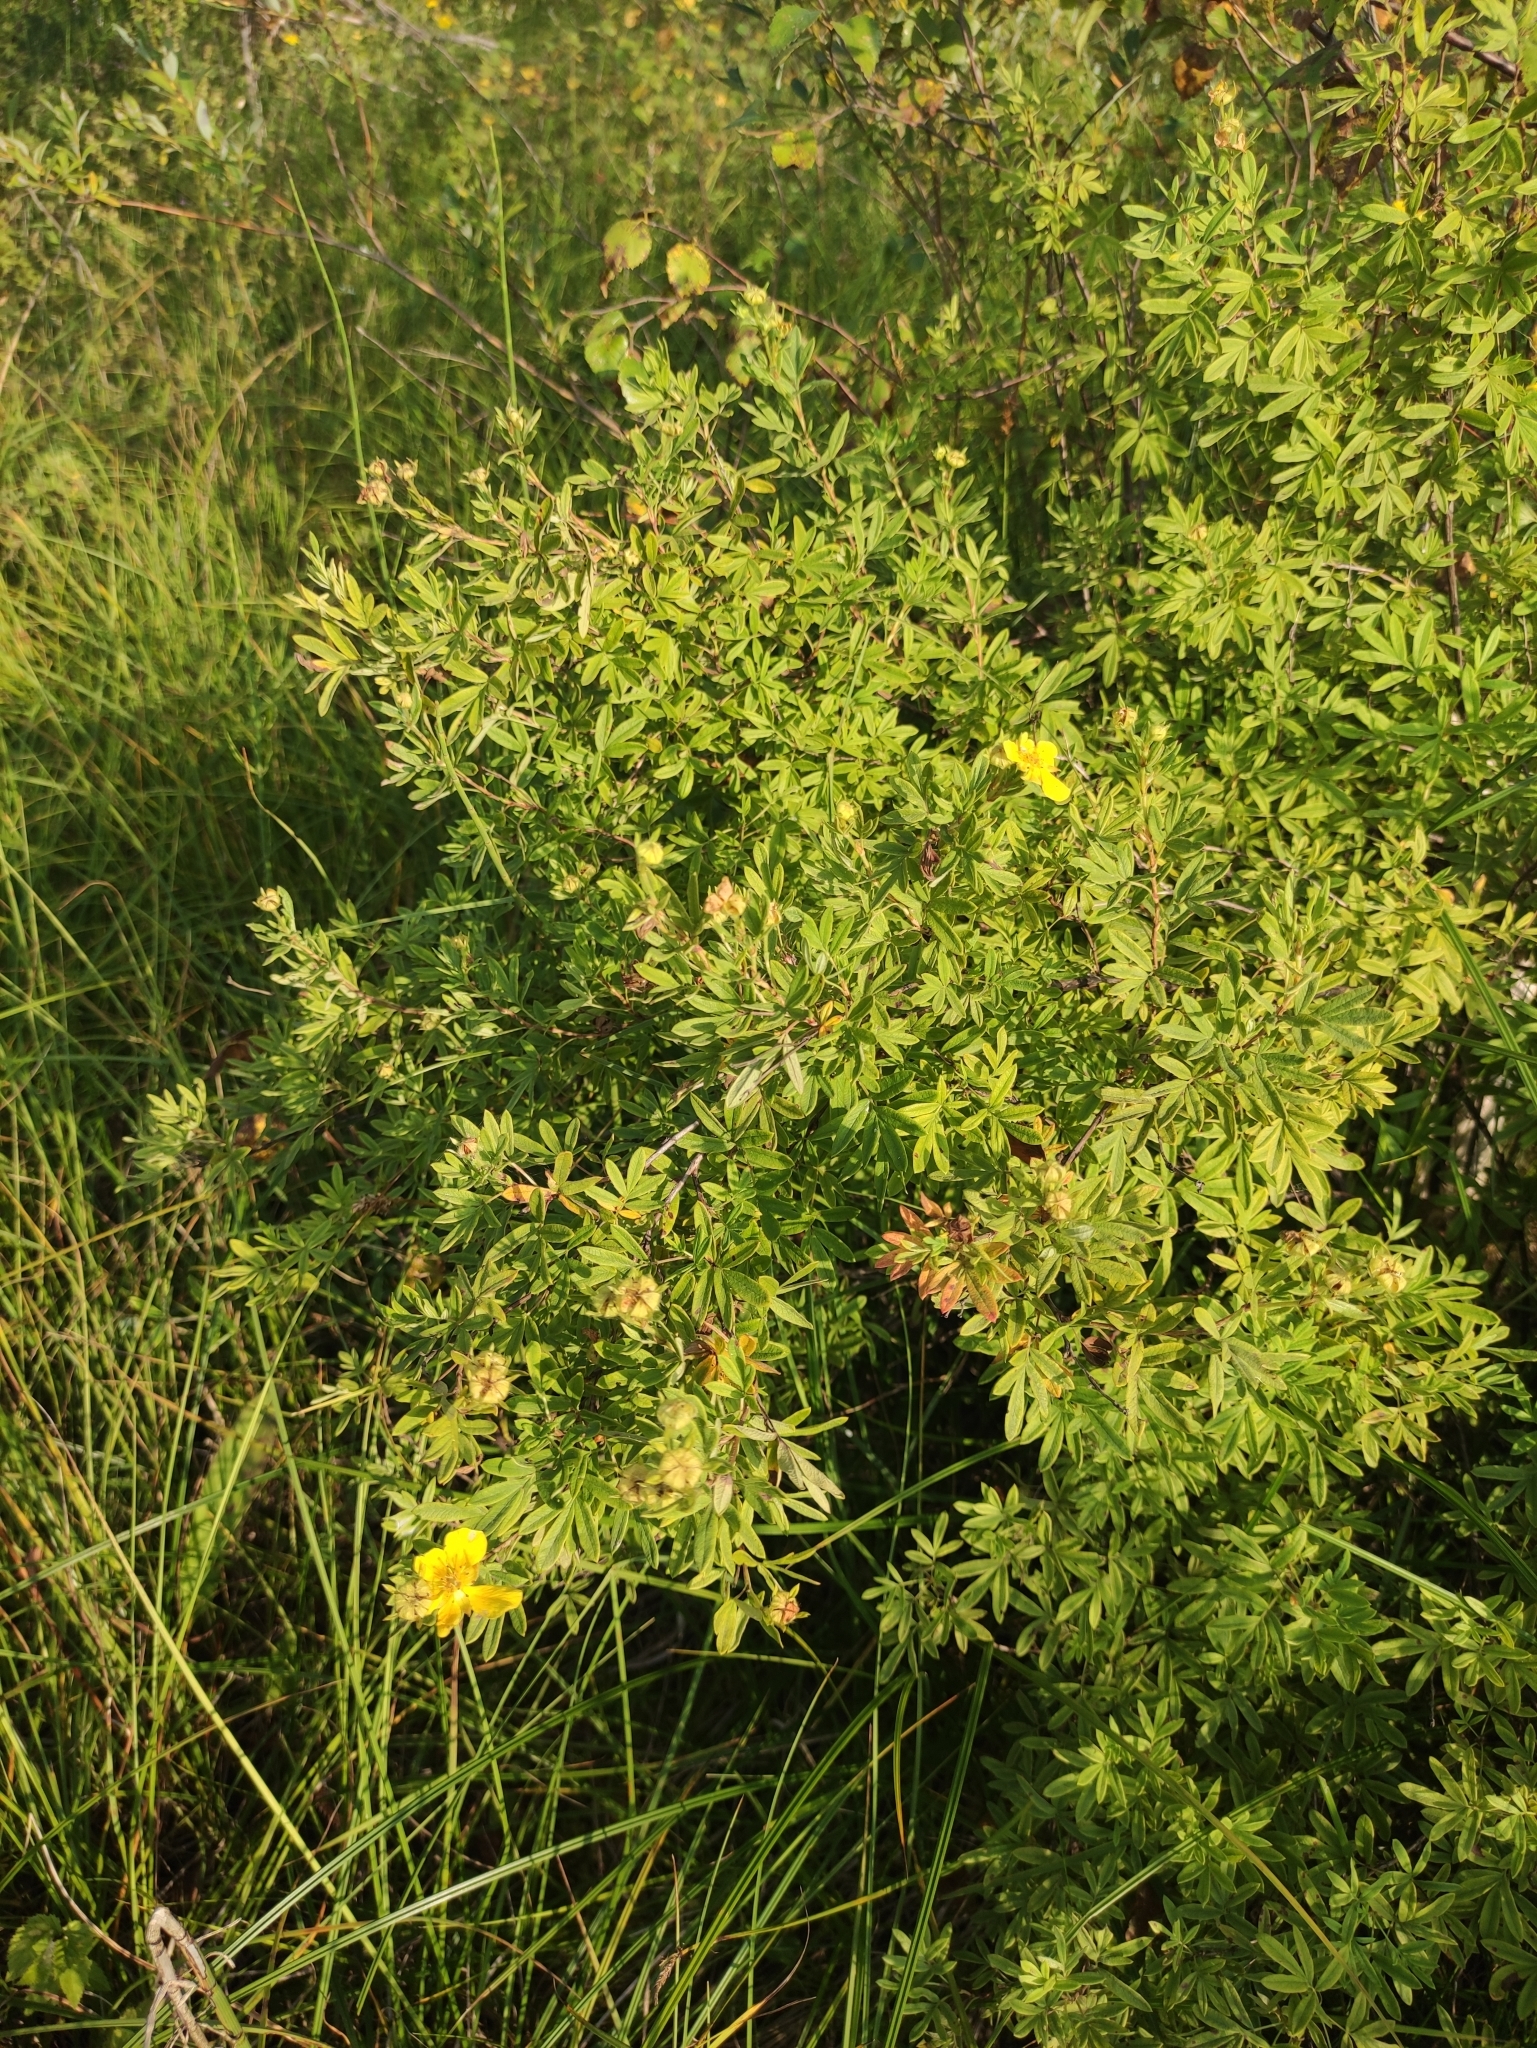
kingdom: Plantae
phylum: Tracheophyta
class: Magnoliopsida
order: Rosales
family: Rosaceae
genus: Dasiphora
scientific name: Dasiphora fruticosa
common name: Shrubby cinquefoil
